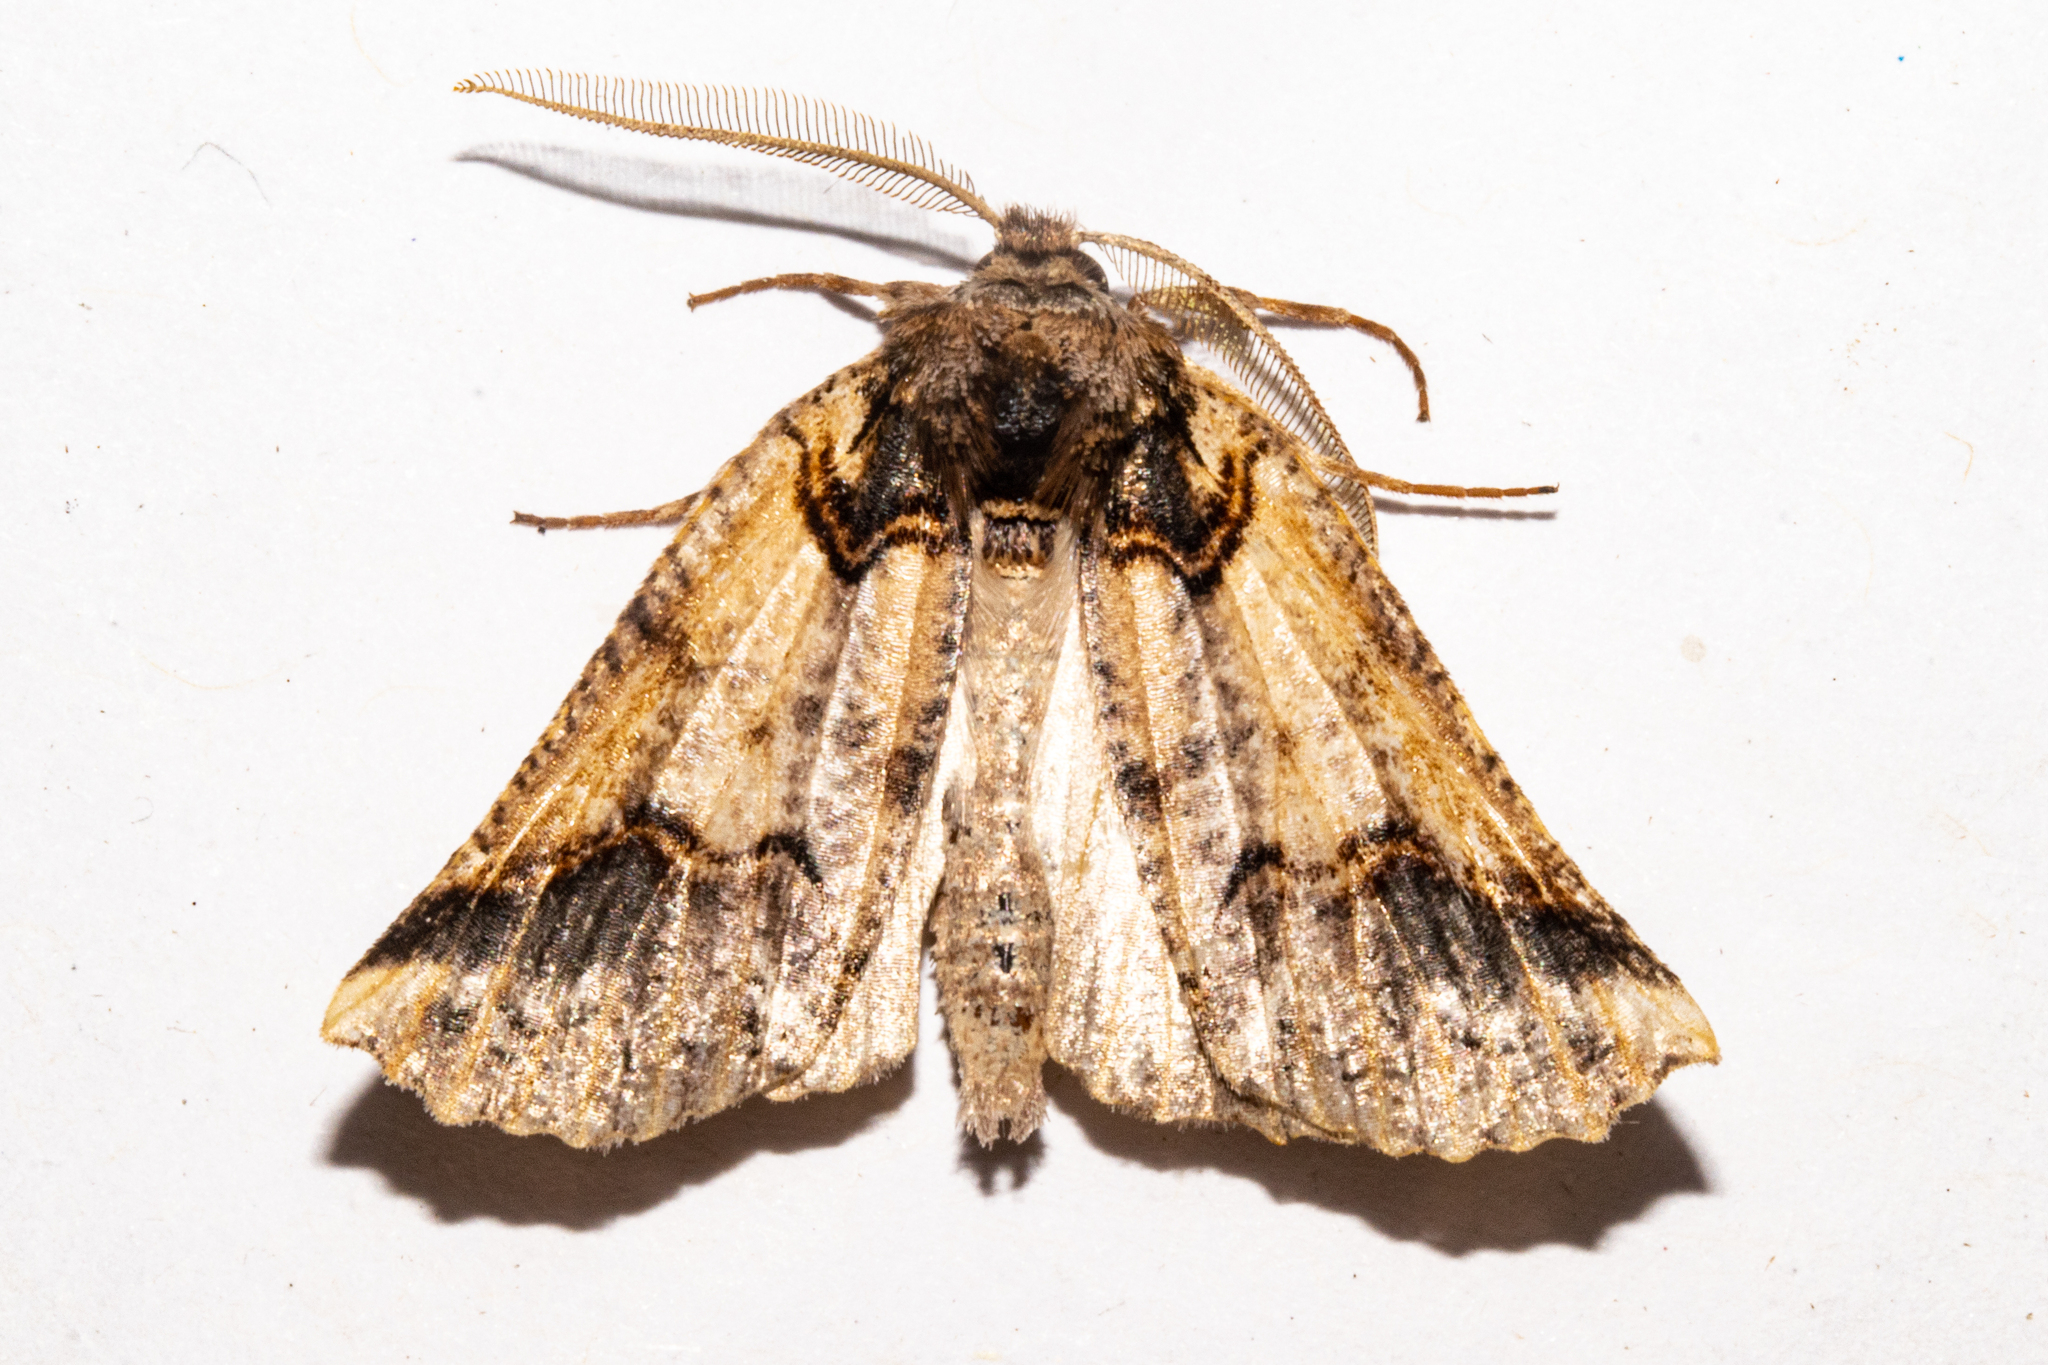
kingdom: Animalia
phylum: Arthropoda
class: Insecta
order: Lepidoptera
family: Geometridae
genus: Declana
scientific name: Declana
